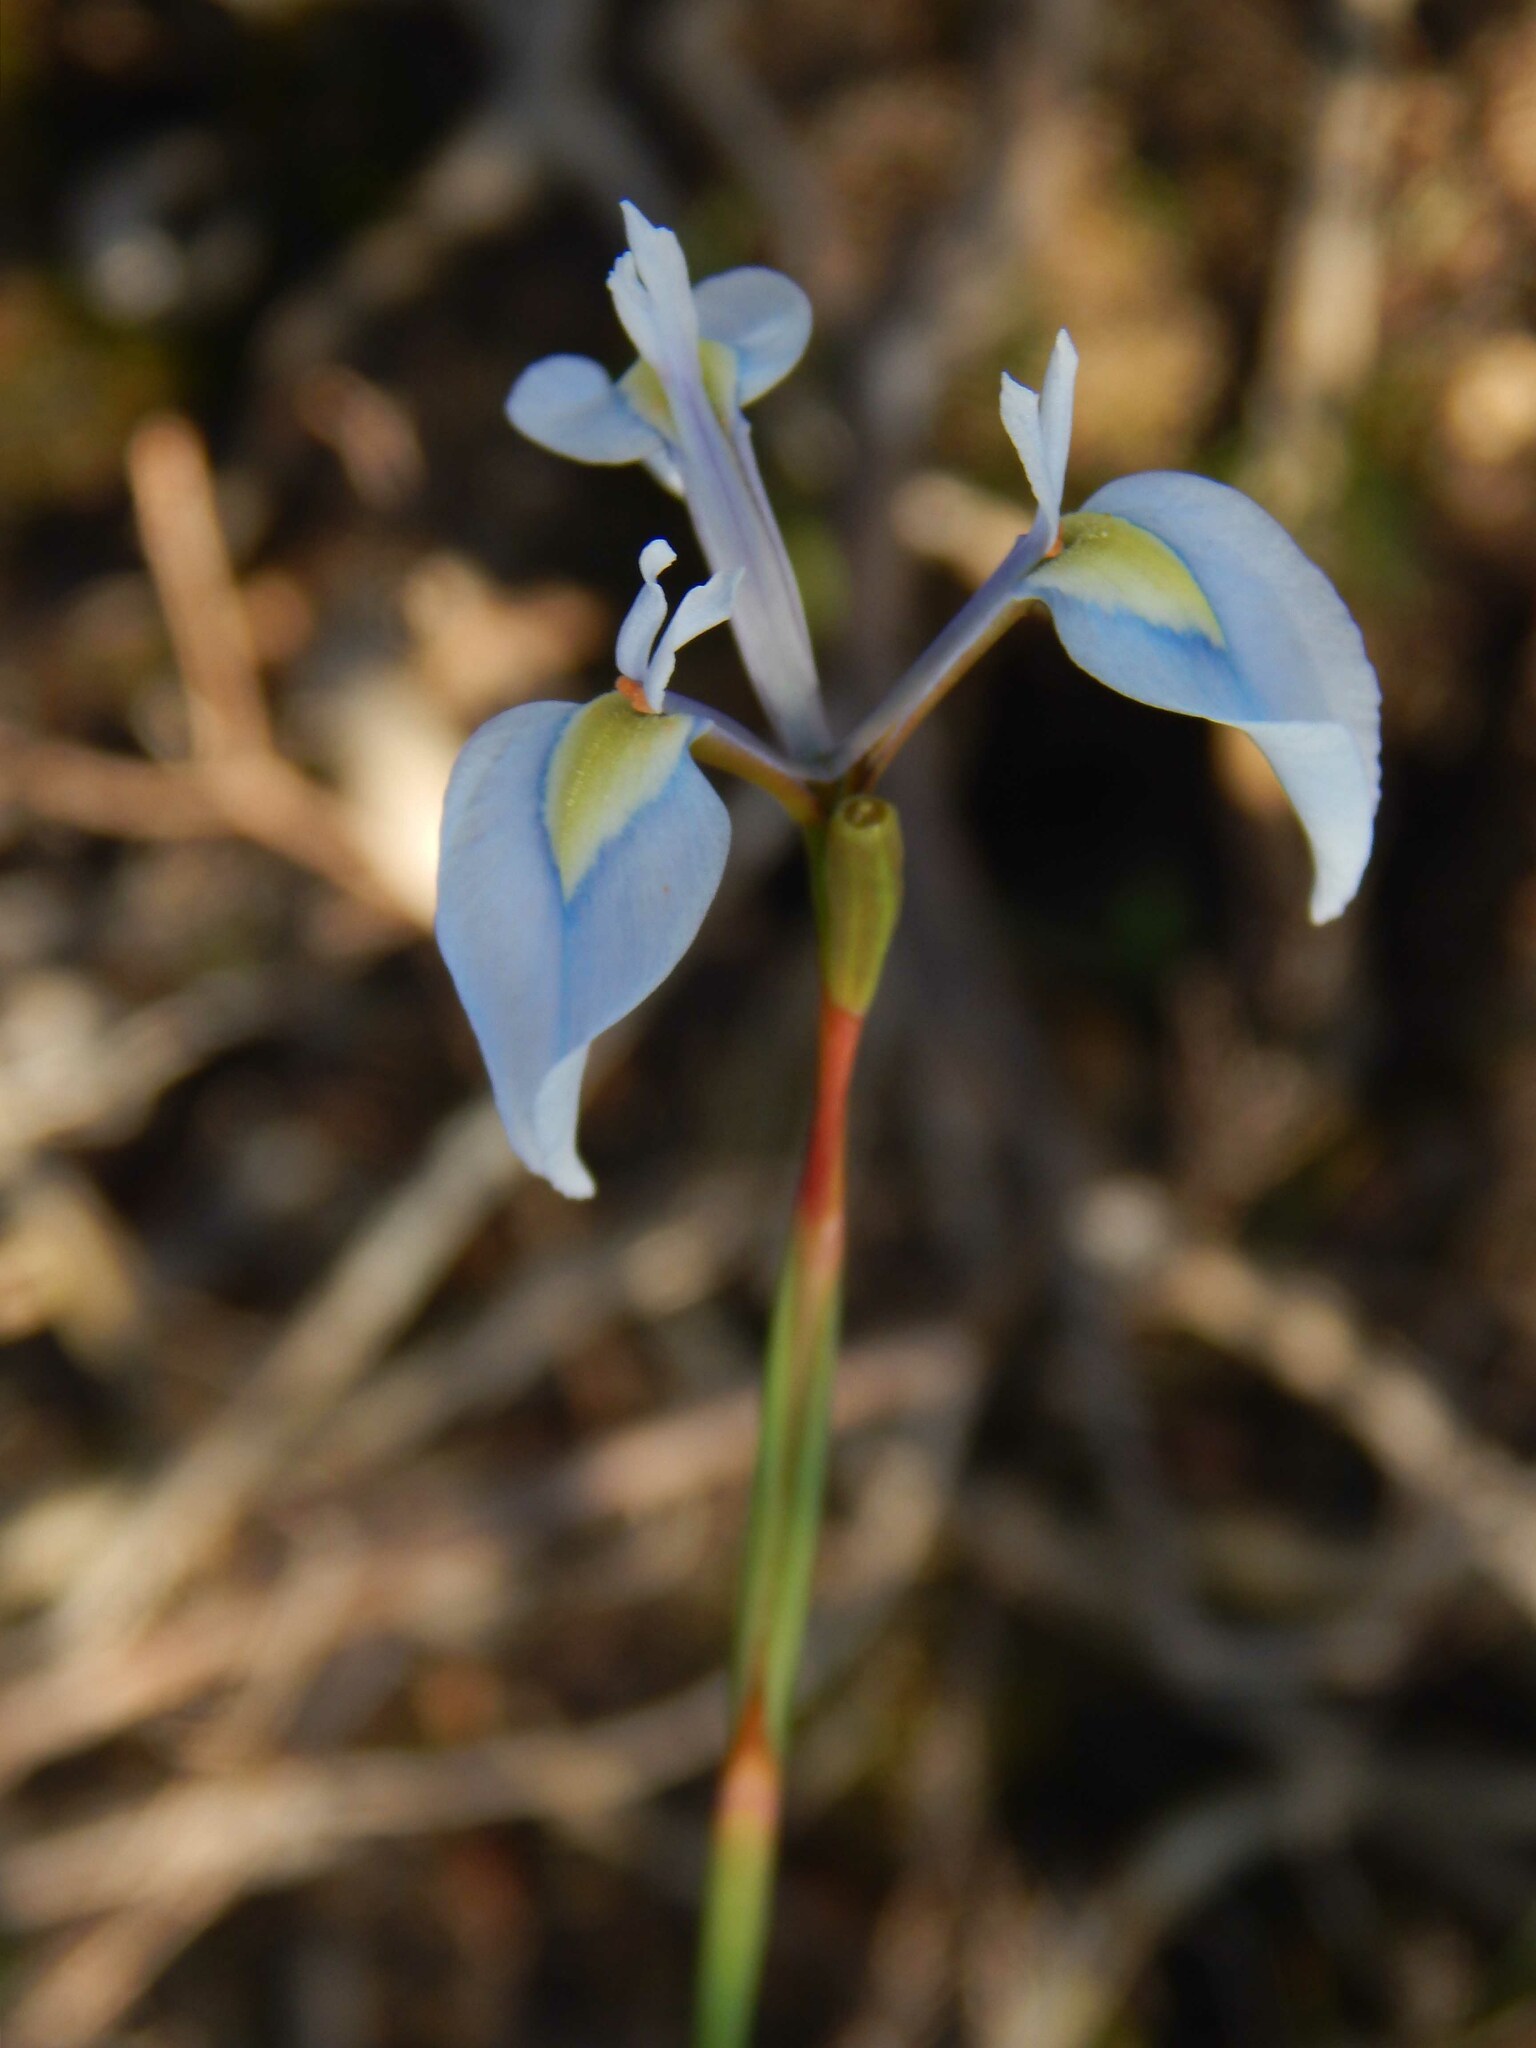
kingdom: Plantae
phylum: Tracheophyta
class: Liliopsida
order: Asparagales
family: Iridaceae
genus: Moraea
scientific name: Moraea tripetala
